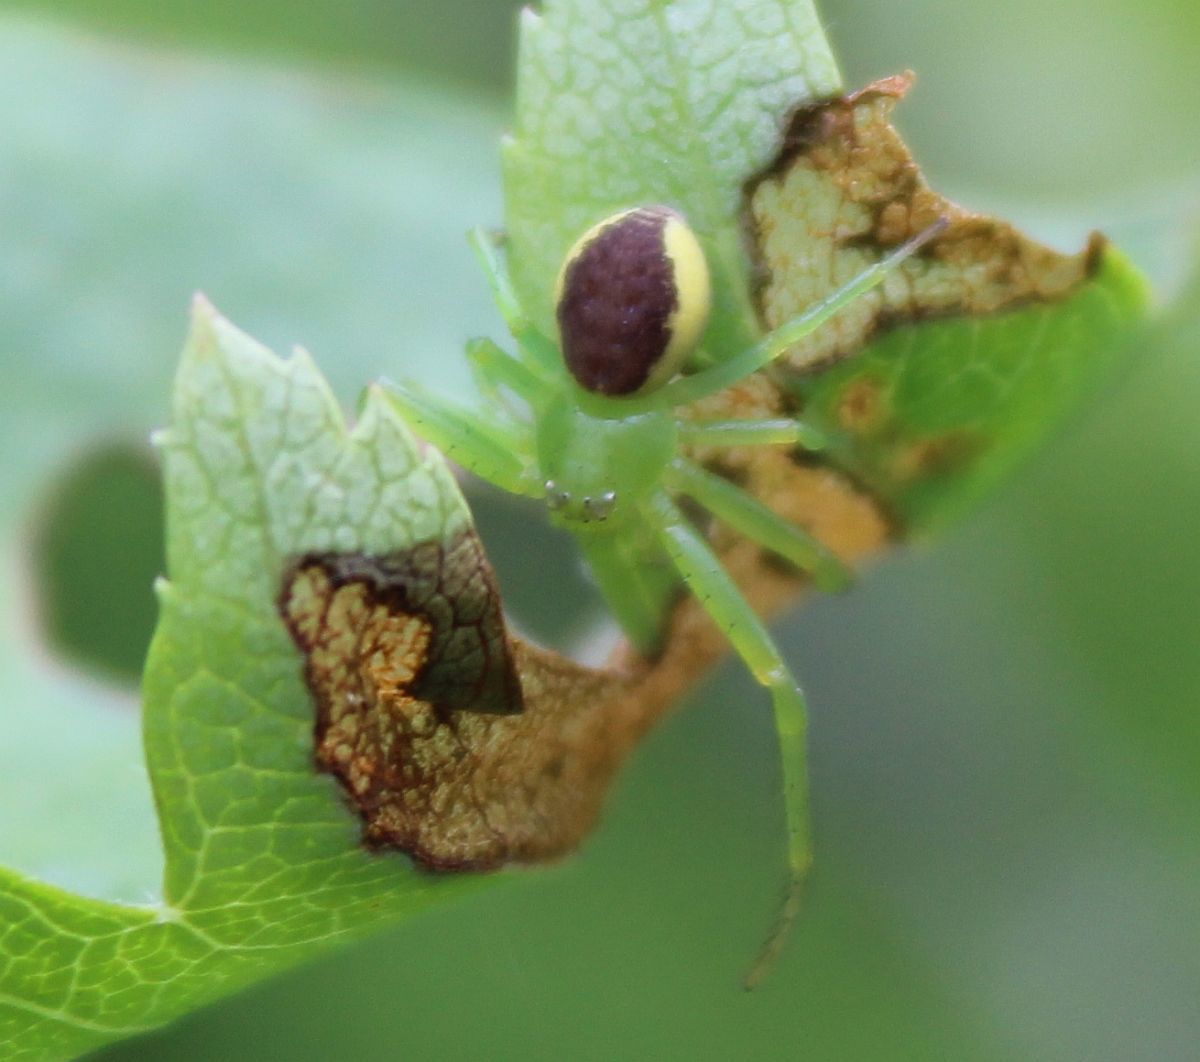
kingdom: Animalia
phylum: Arthropoda
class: Arachnida
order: Araneae
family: Thomisidae
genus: Diaea
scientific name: Diaea dorsata
